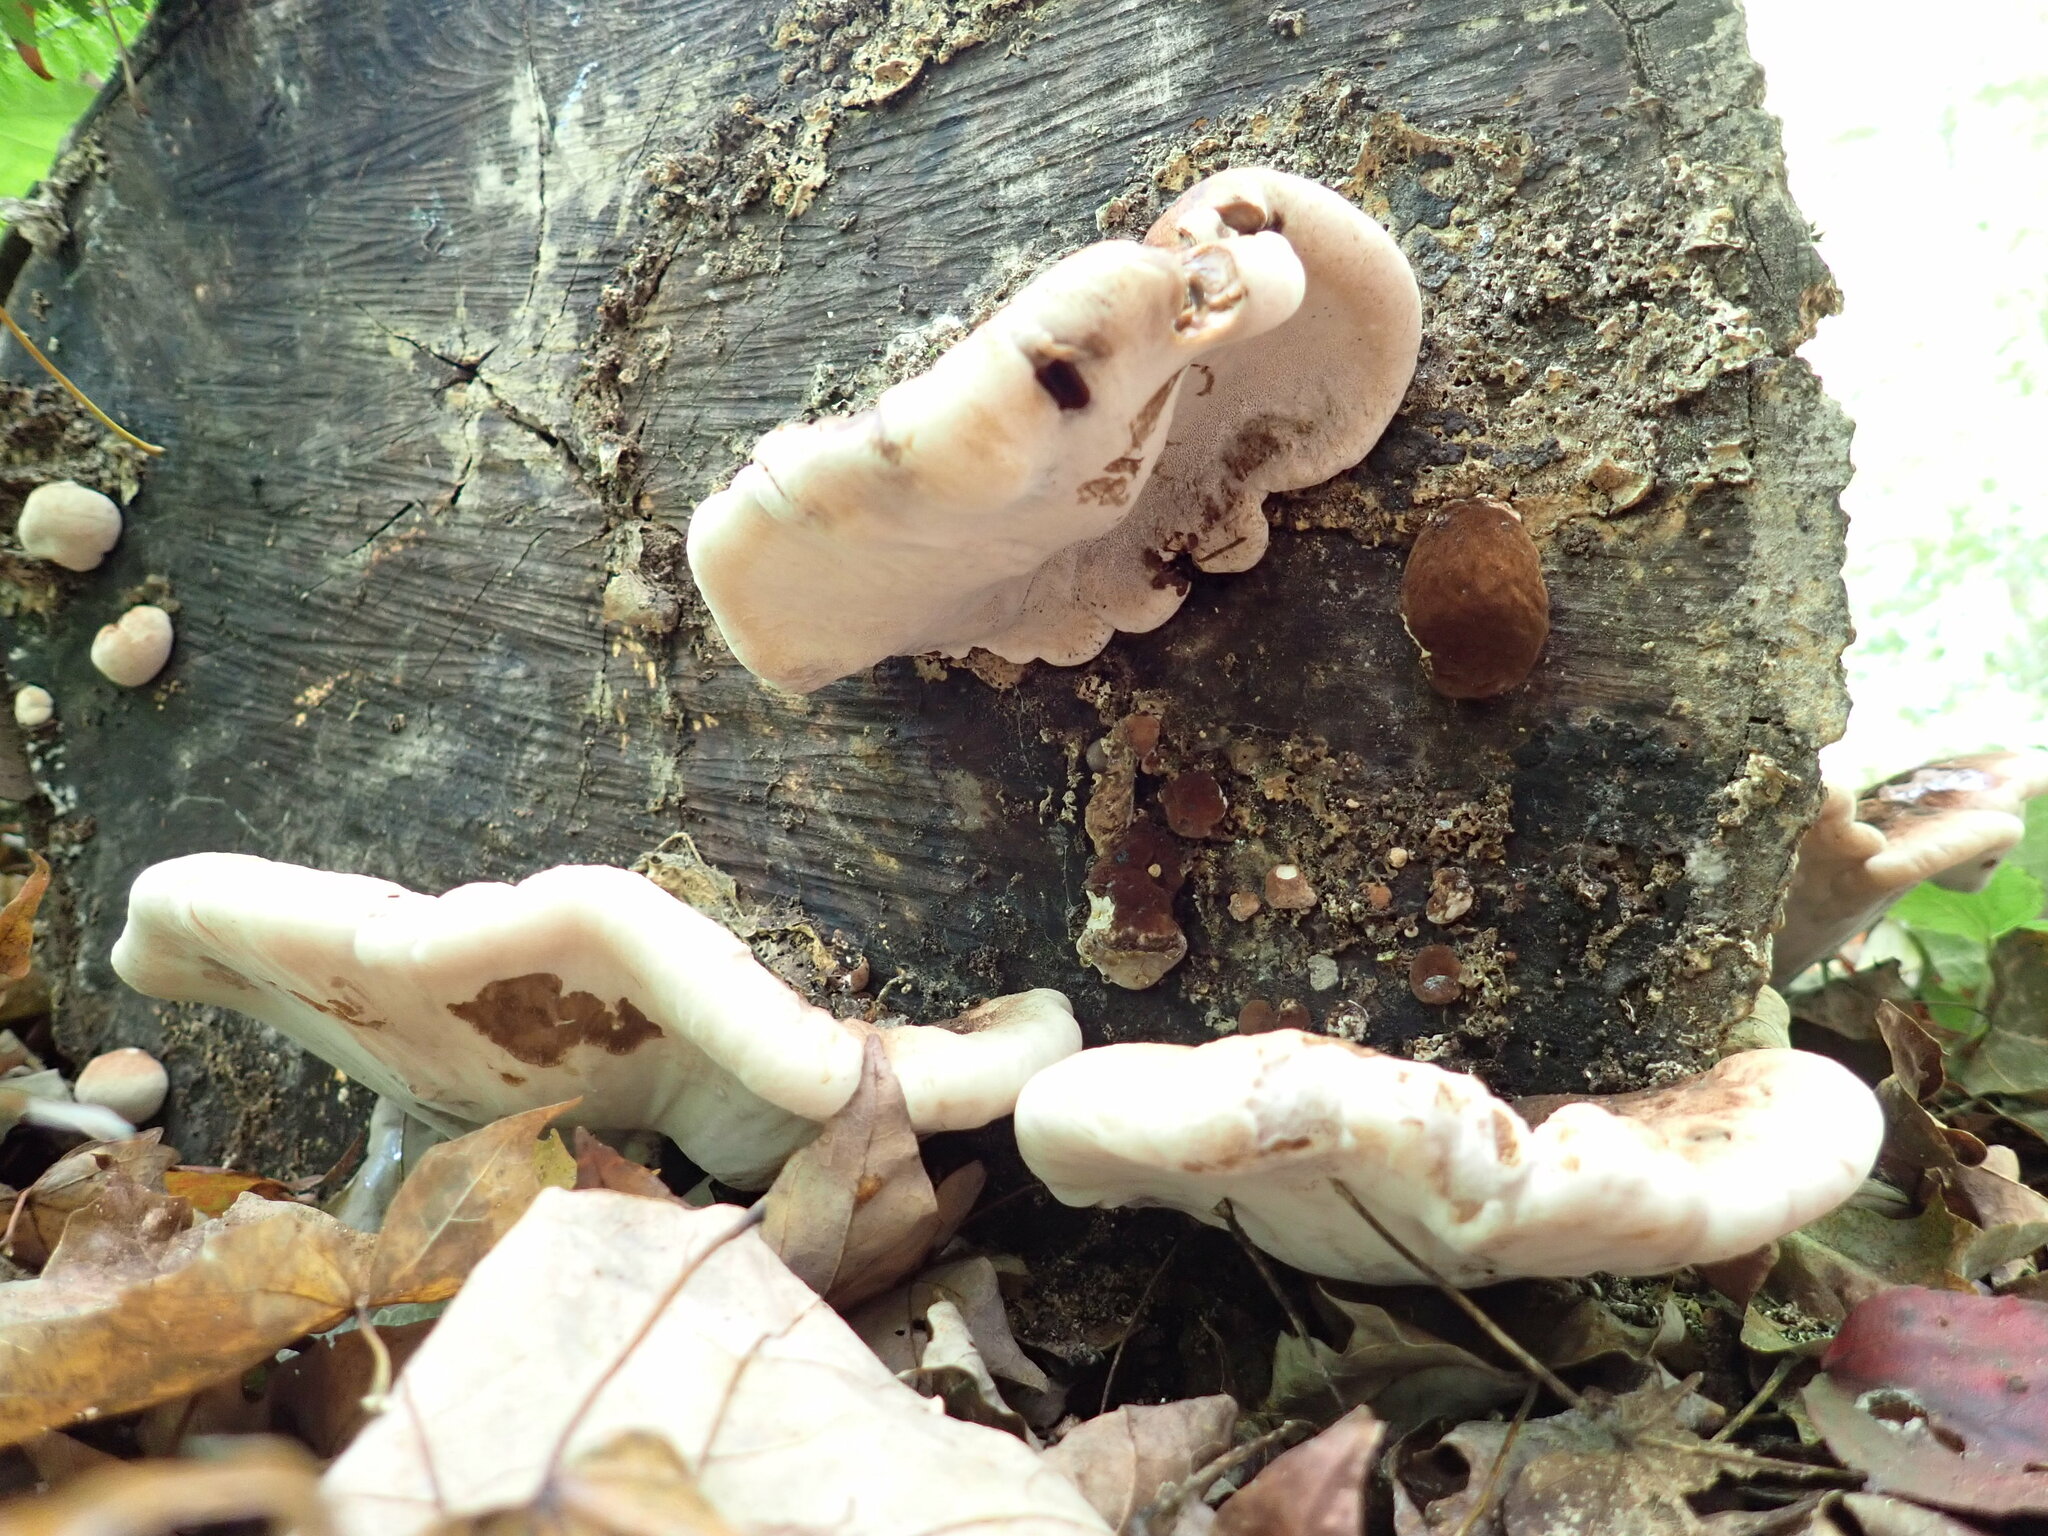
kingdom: Fungi
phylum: Basidiomycota
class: Agaricomycetes
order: Polyporales
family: Ischnodermataceae
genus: Ischnoderma
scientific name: Ischnoderma resinosum
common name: Resinous polypore
